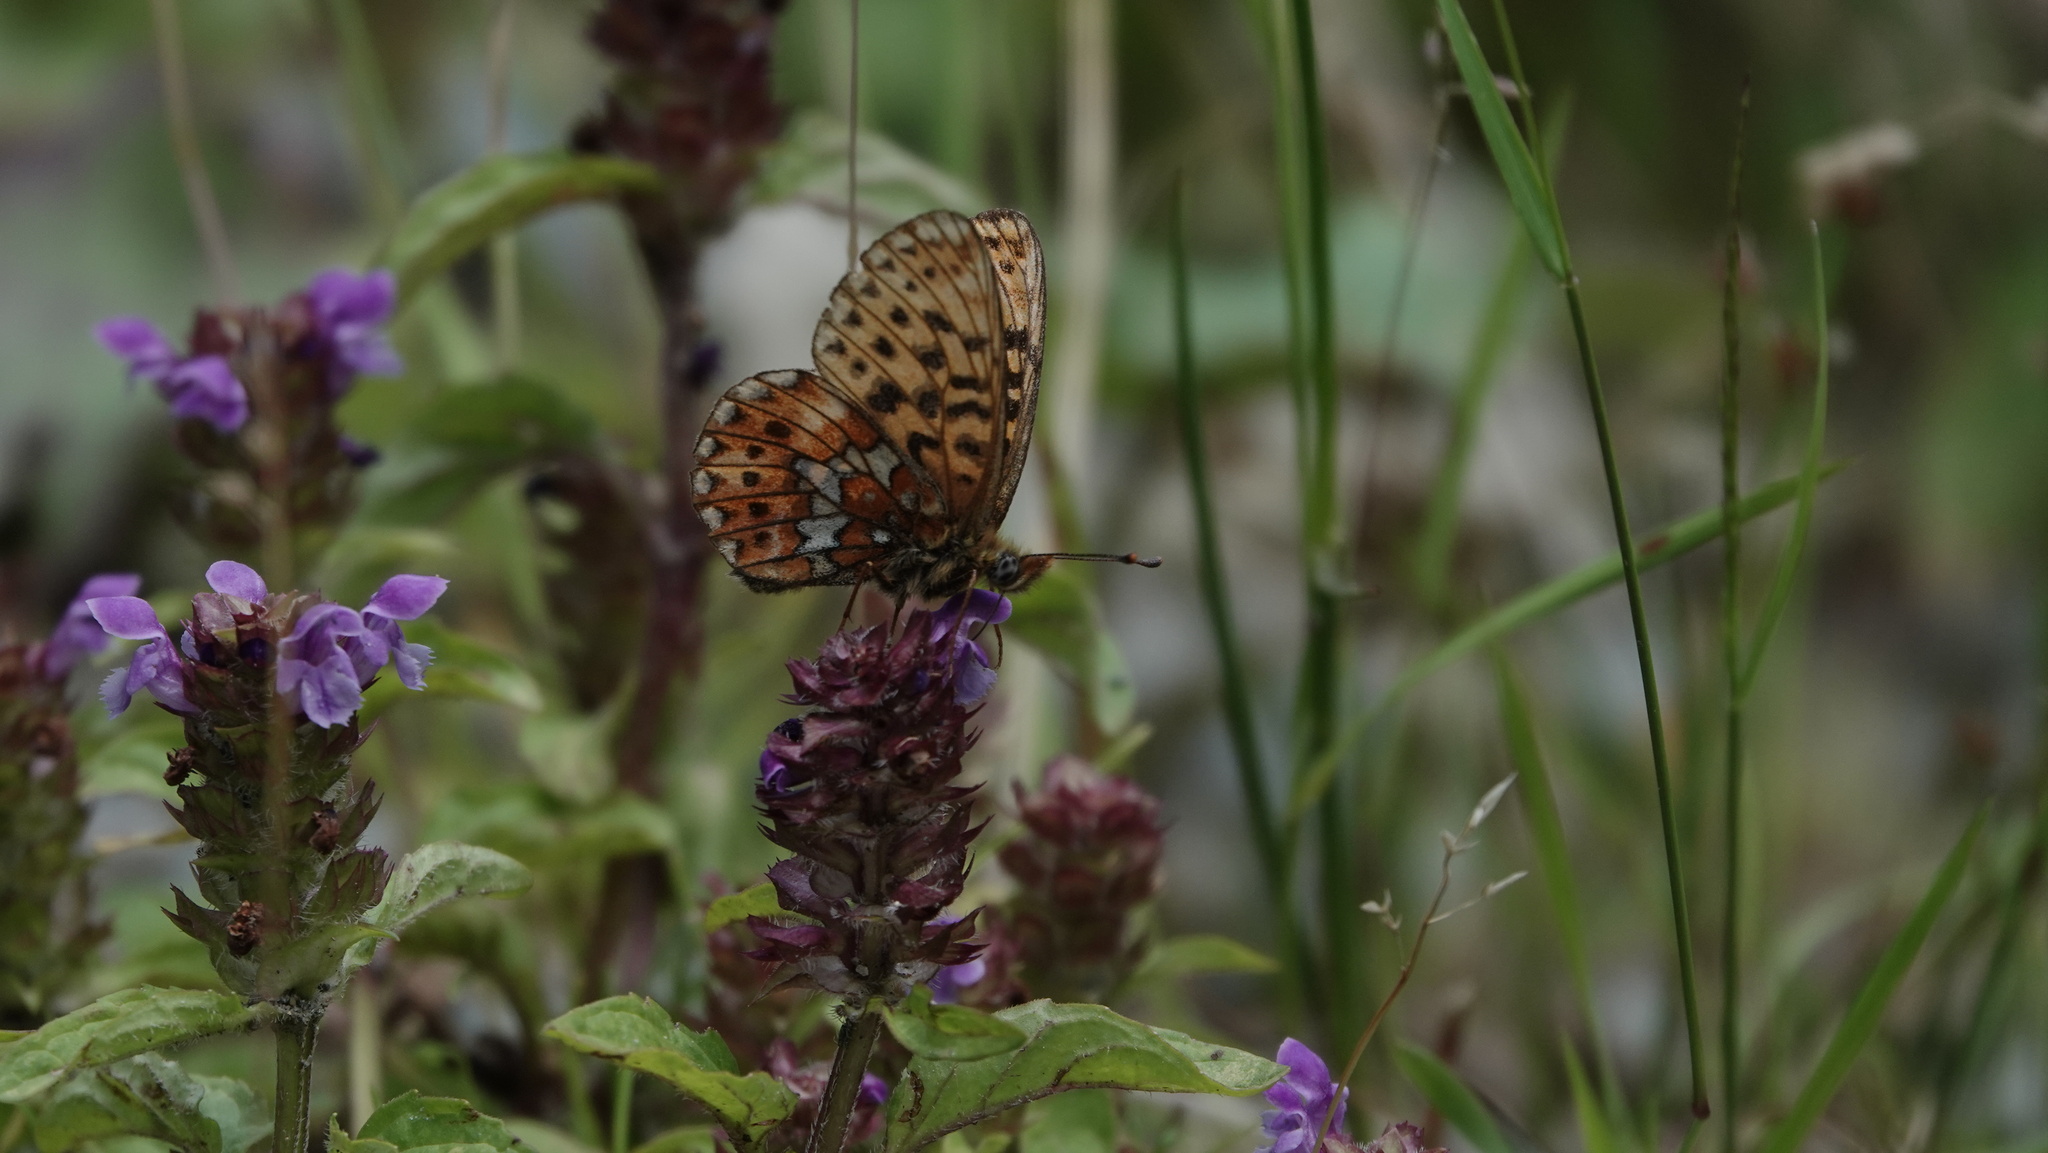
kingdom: Animalia
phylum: Arthropoda
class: Insecta
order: Lepidoptera
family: Nymphalidae
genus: Clossiana
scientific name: Clossiana euphrosyne
